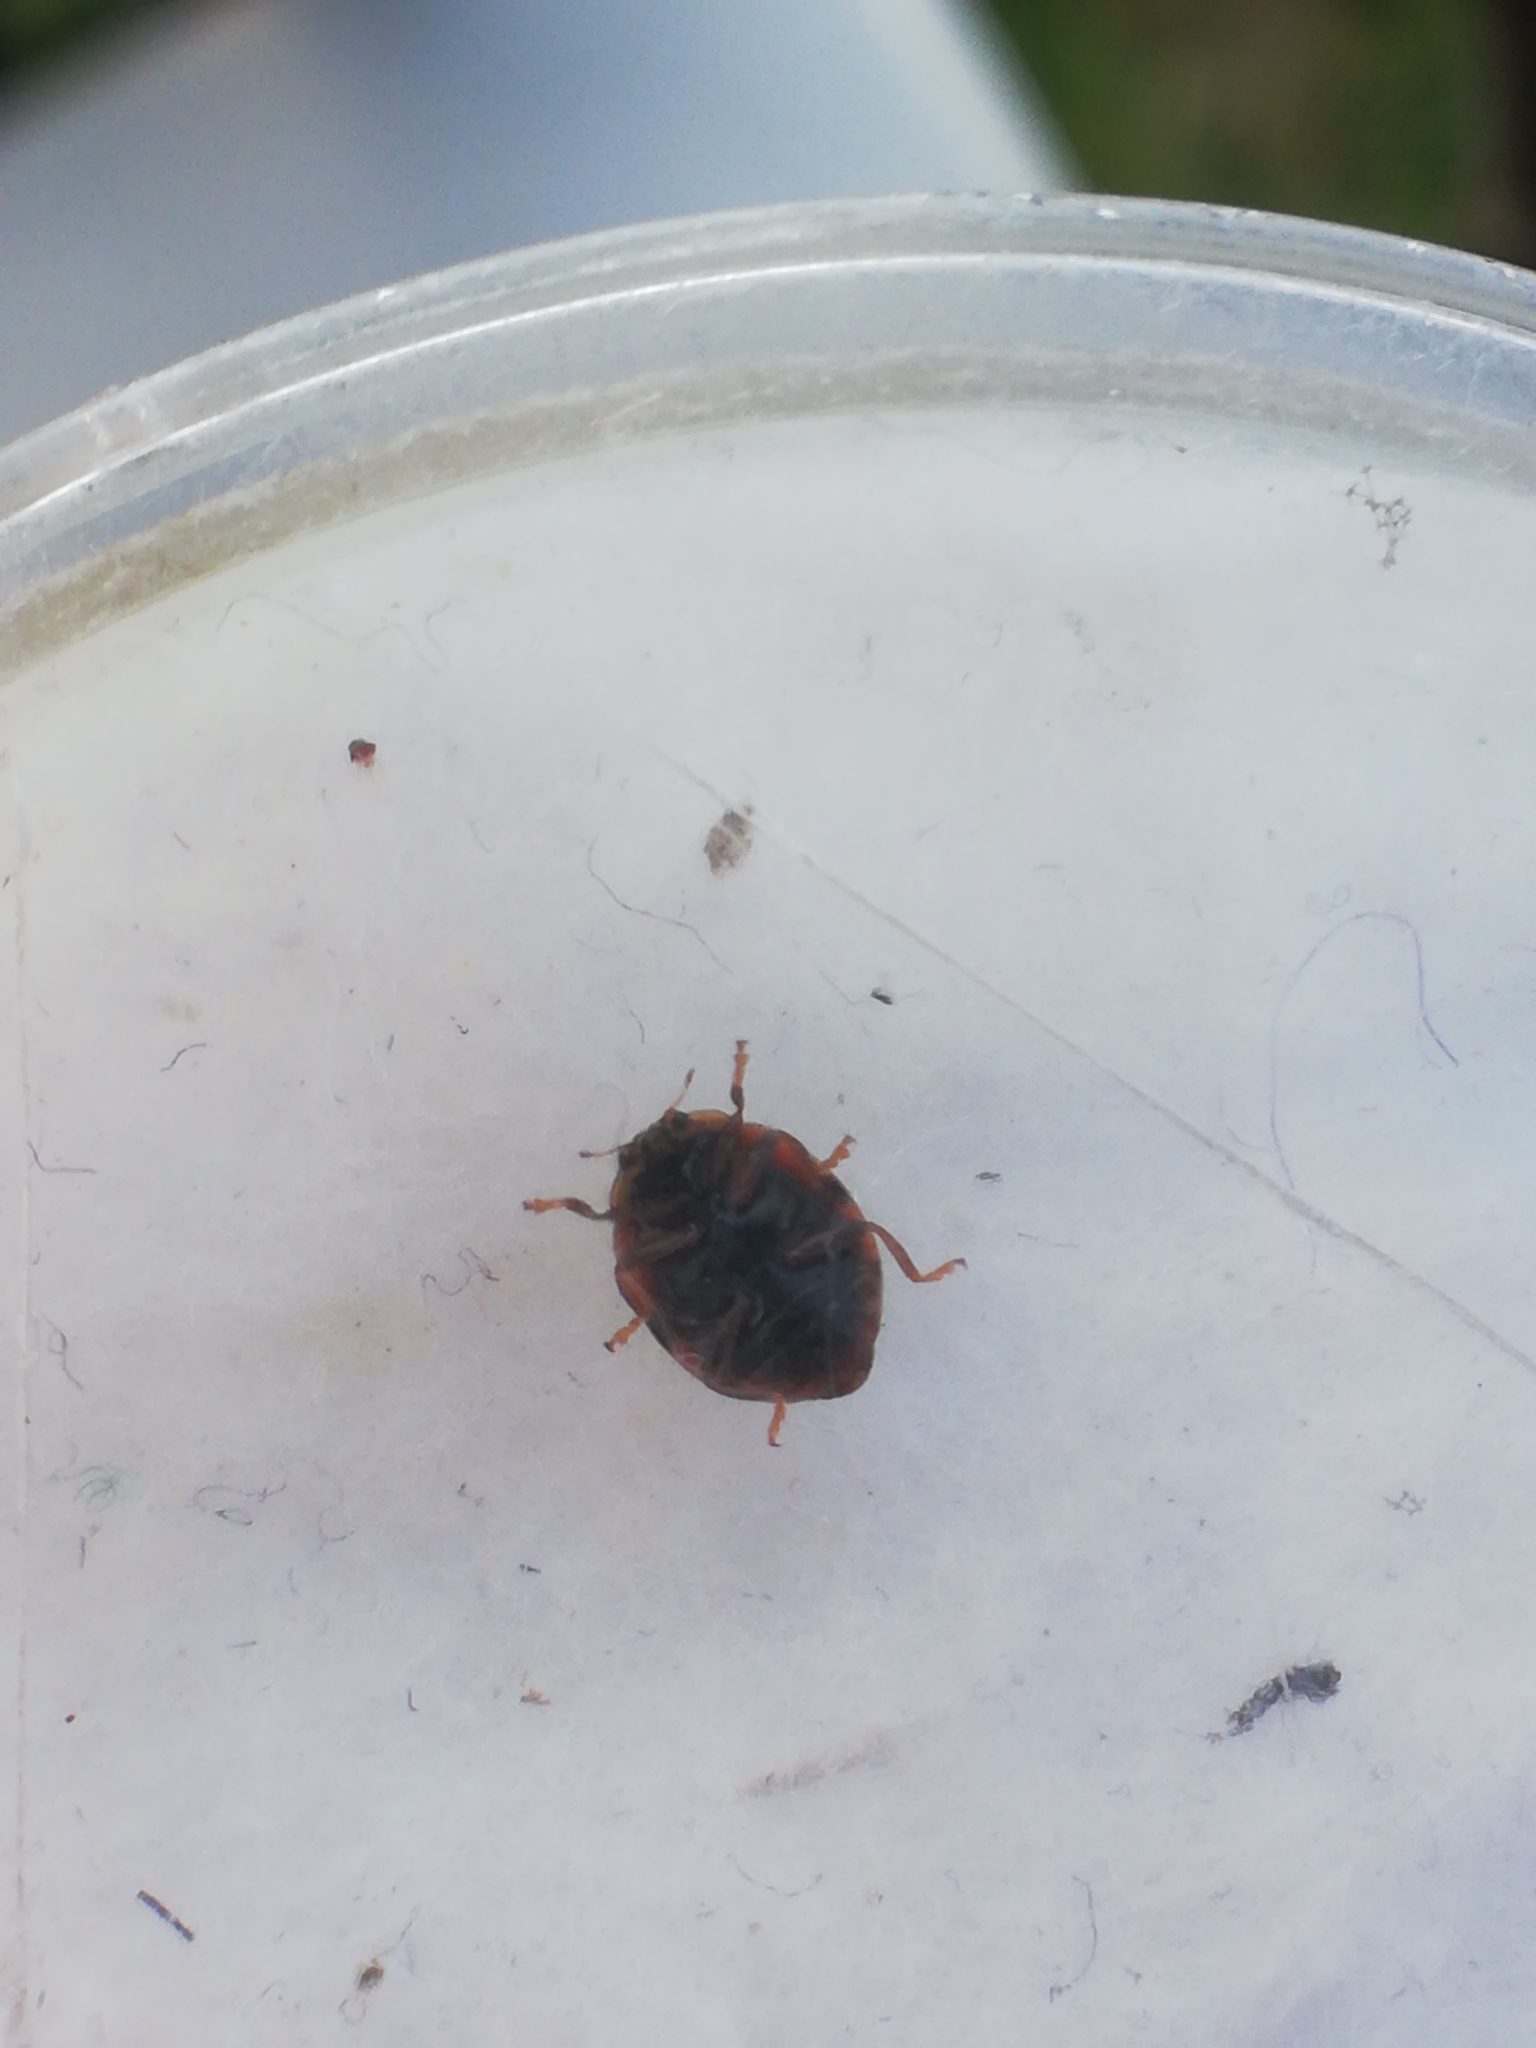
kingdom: Animalia
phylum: Arthropoda
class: Insecta
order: Coleoptera
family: Coccinellidae
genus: Adalia
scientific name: Adalia decempunctata
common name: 10-spot ladybird
